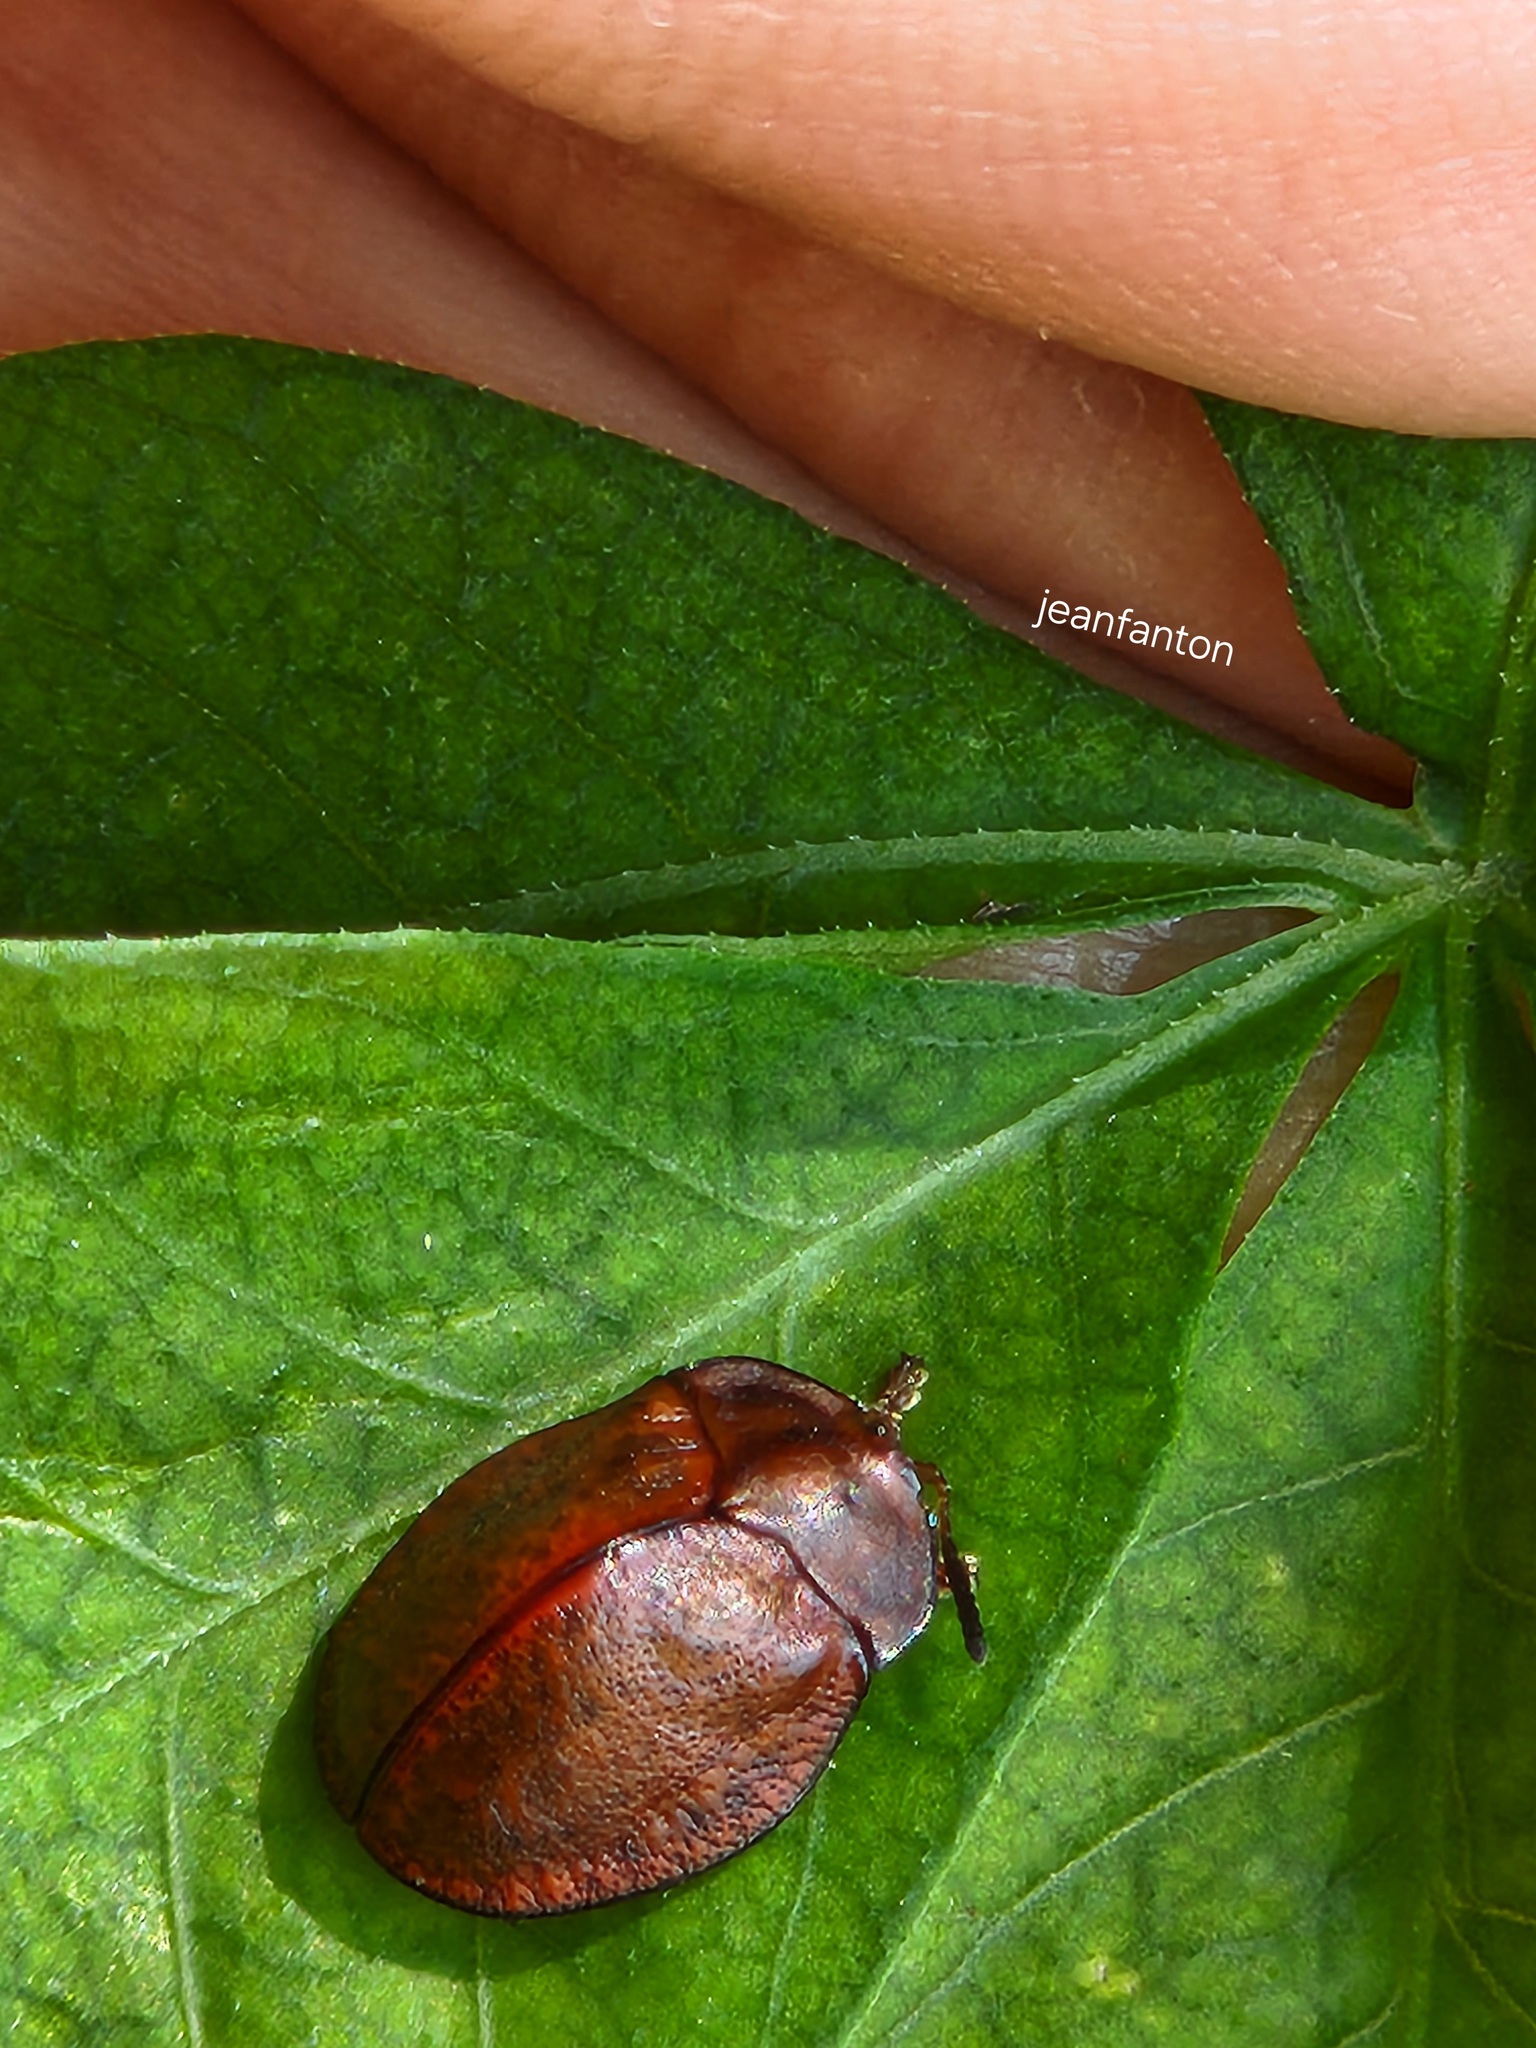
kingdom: Animalia
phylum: Arthropoda
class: Insecta
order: Coleoptera
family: Chrysomelidae
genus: Chelymorpha
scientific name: Chelymorpha inflata
